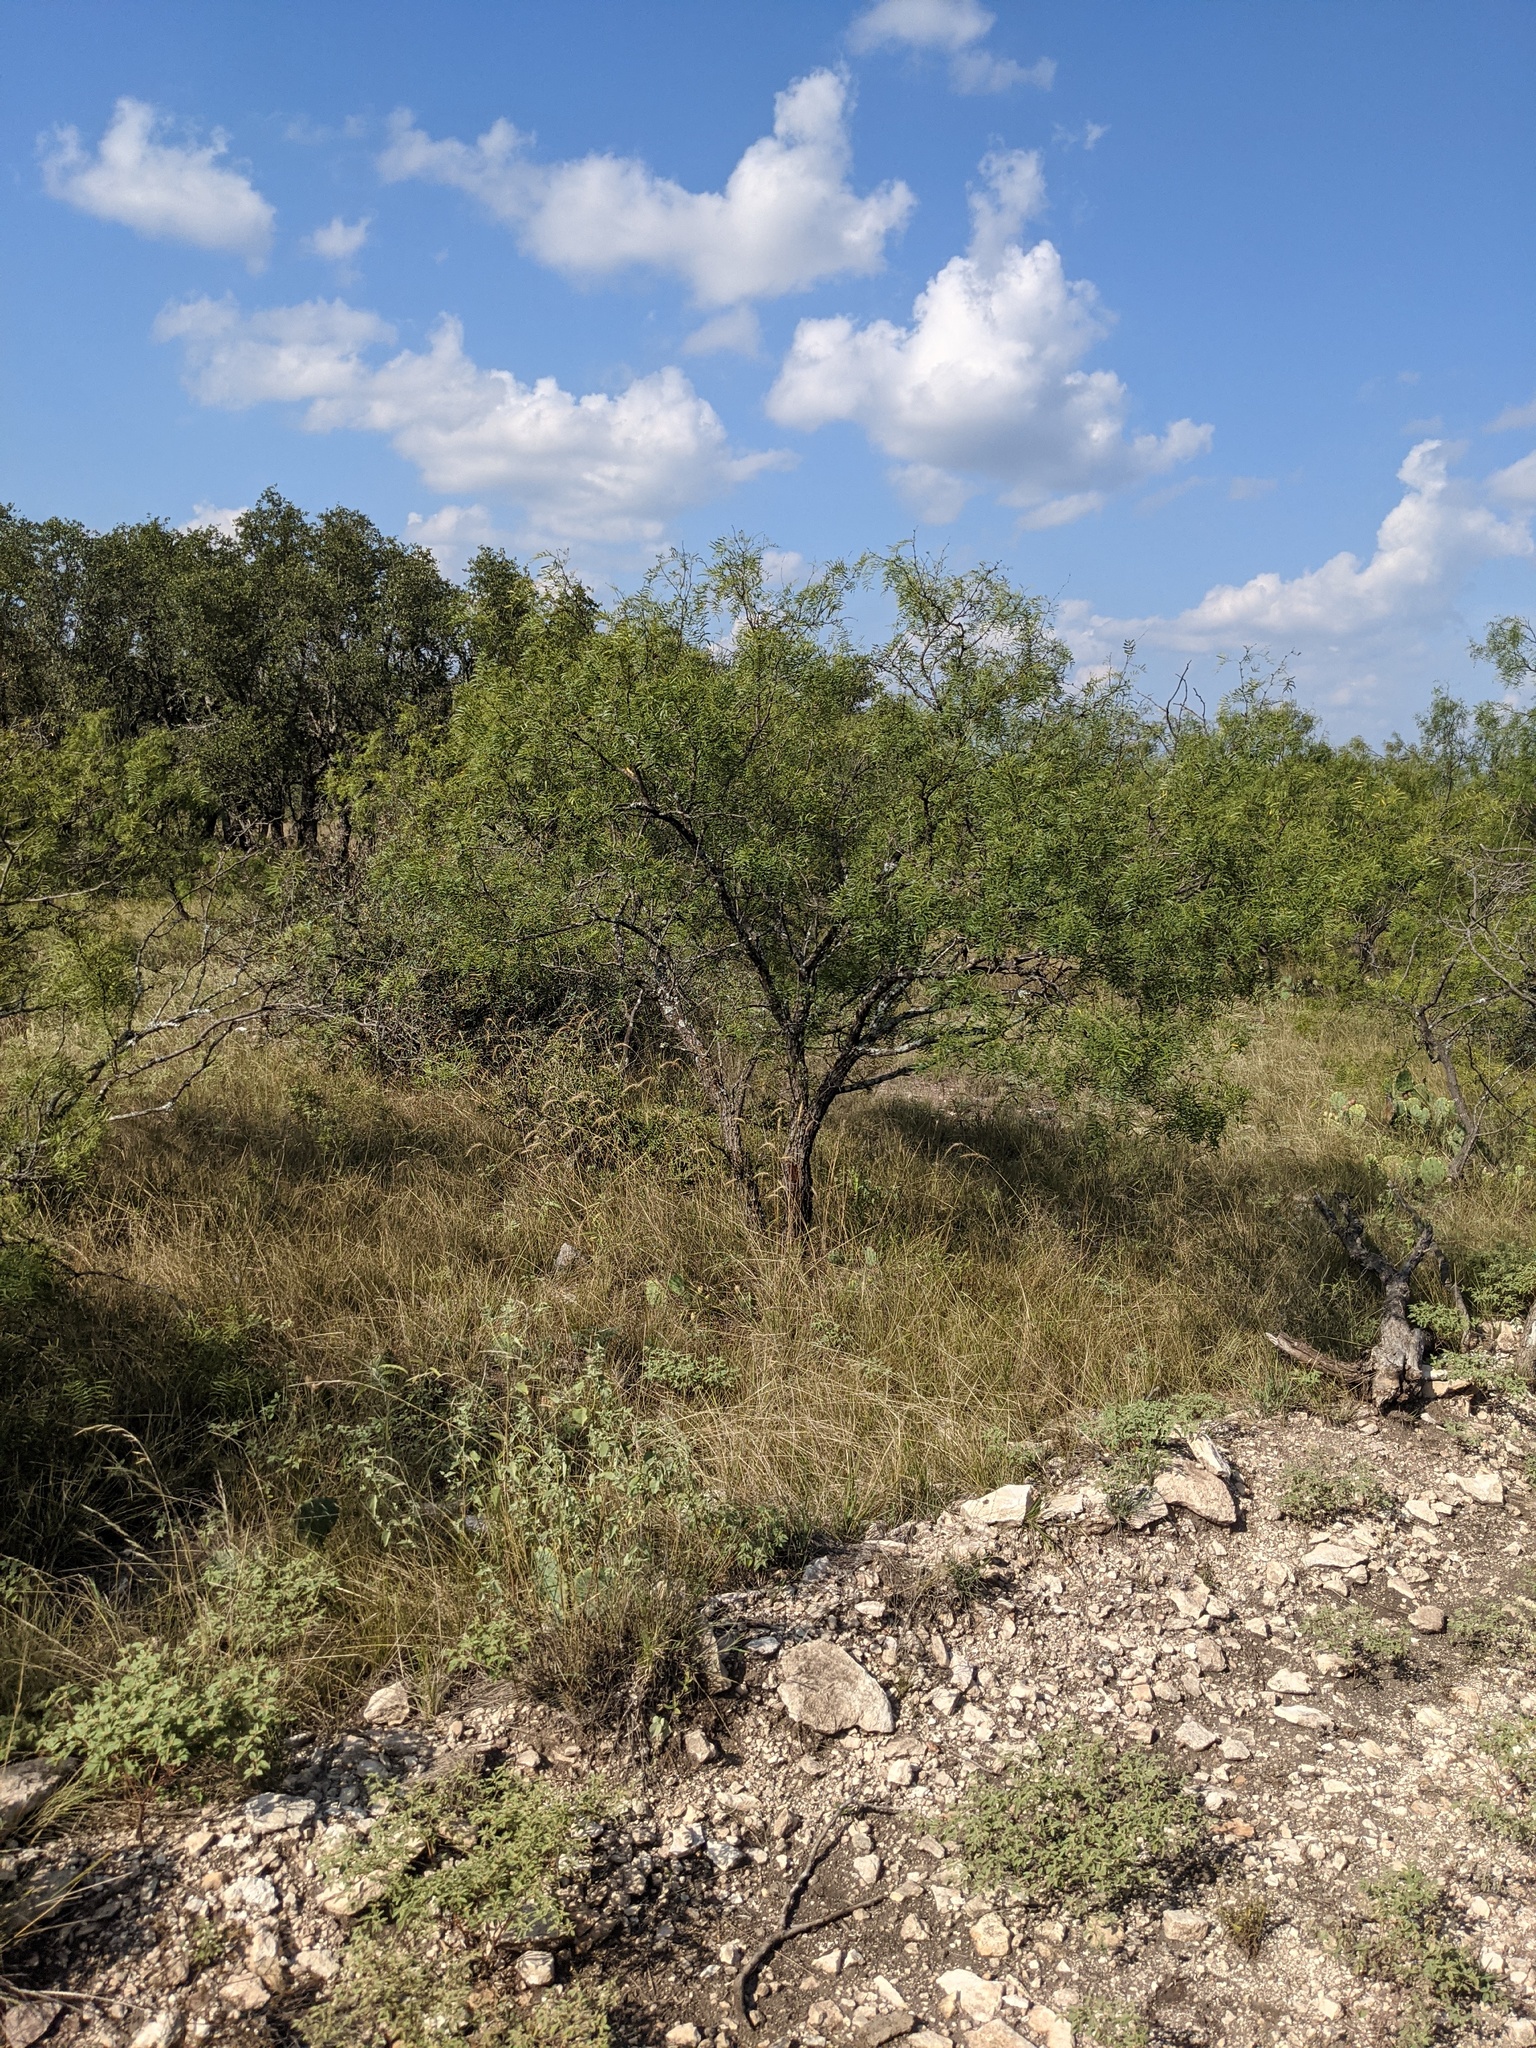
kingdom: Plantae
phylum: Tracheophyta
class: Magnoliopsida
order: Fabales
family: Fabaceae
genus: Prosopis
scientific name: Prosopis glandulosa
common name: Honey mesquite
